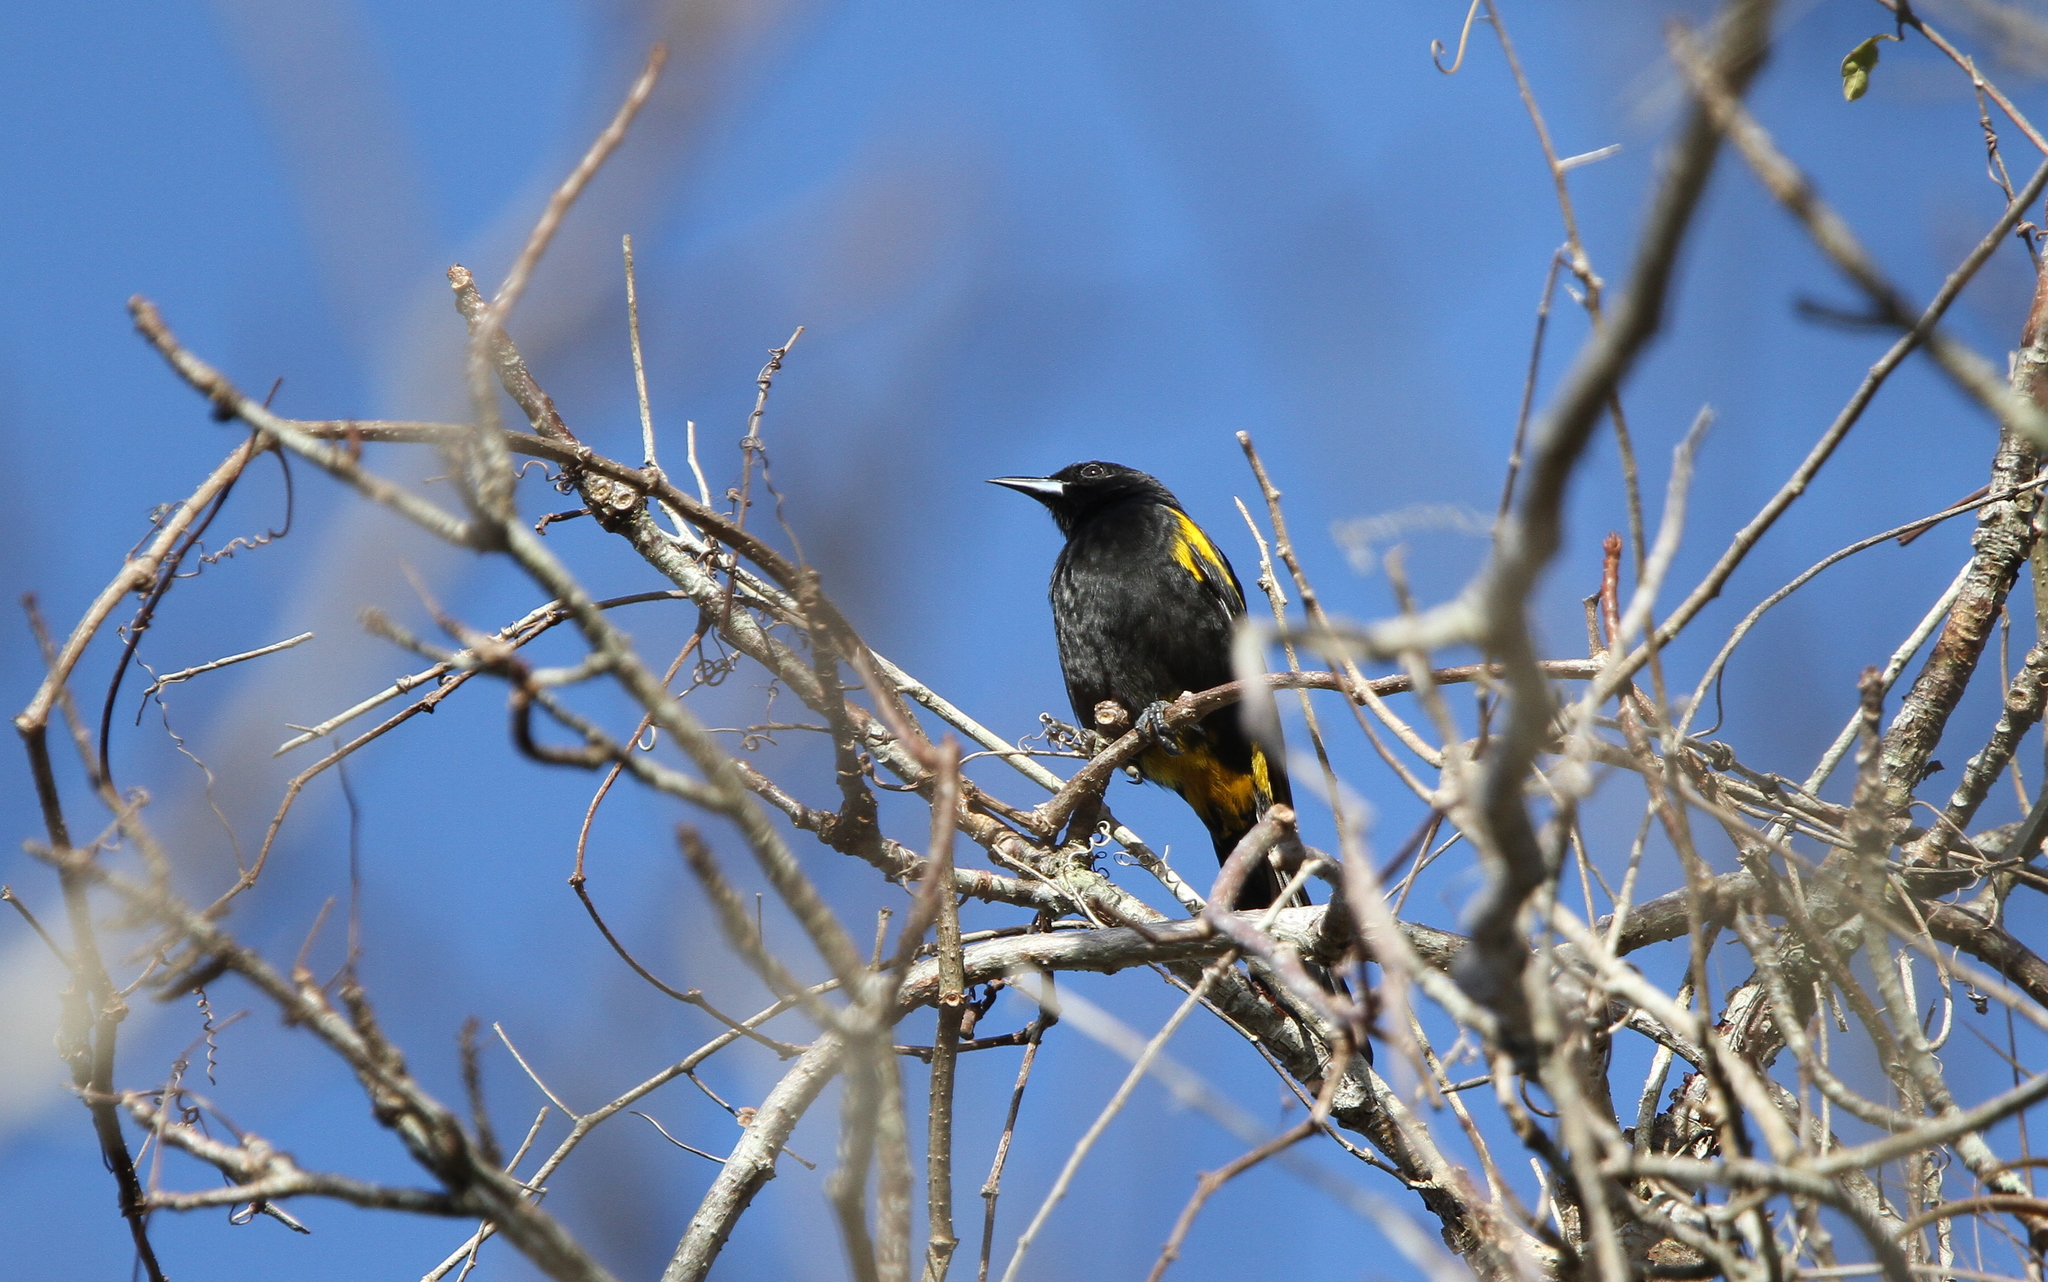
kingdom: Animalia
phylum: Chordata
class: Aves
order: Passeriformes
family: Icteridae
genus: Icterus
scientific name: Icterus dominicensis
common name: Hispaniolan oriole
